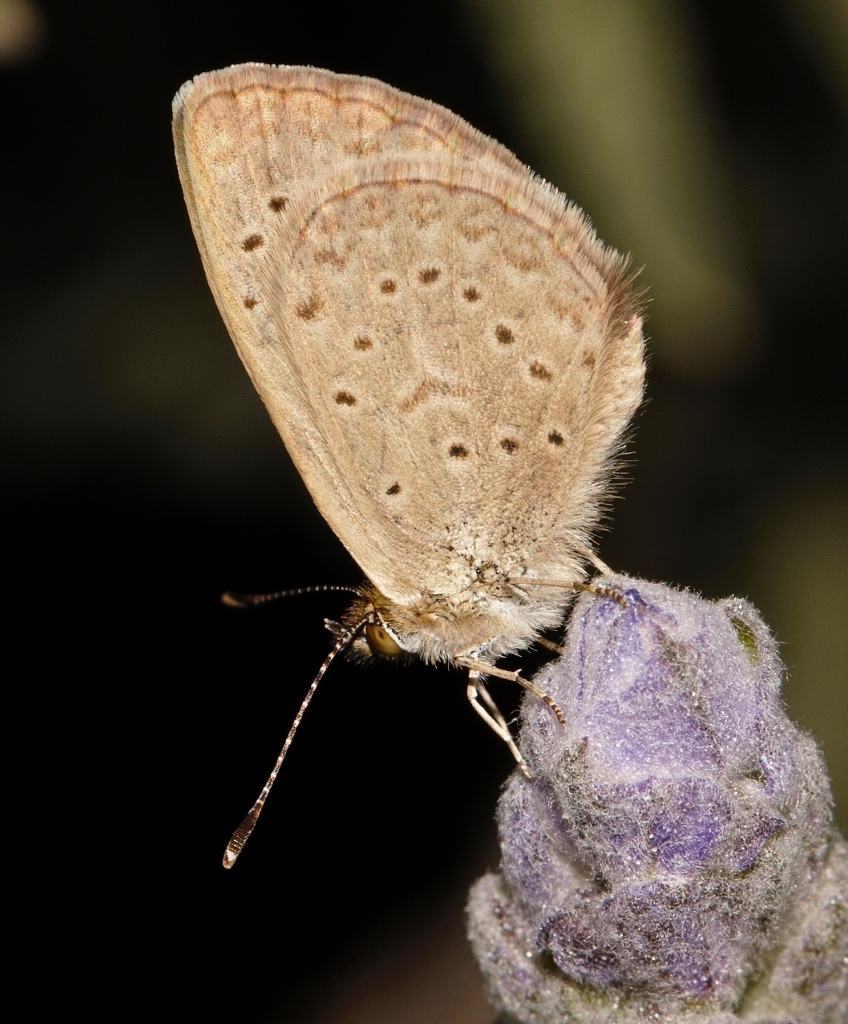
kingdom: Animalia
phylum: Arthropoda
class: Insecta
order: Lepidoptera
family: Lycaenidae
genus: Zizeeria
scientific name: Zizeeria knysna
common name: African grass blue
